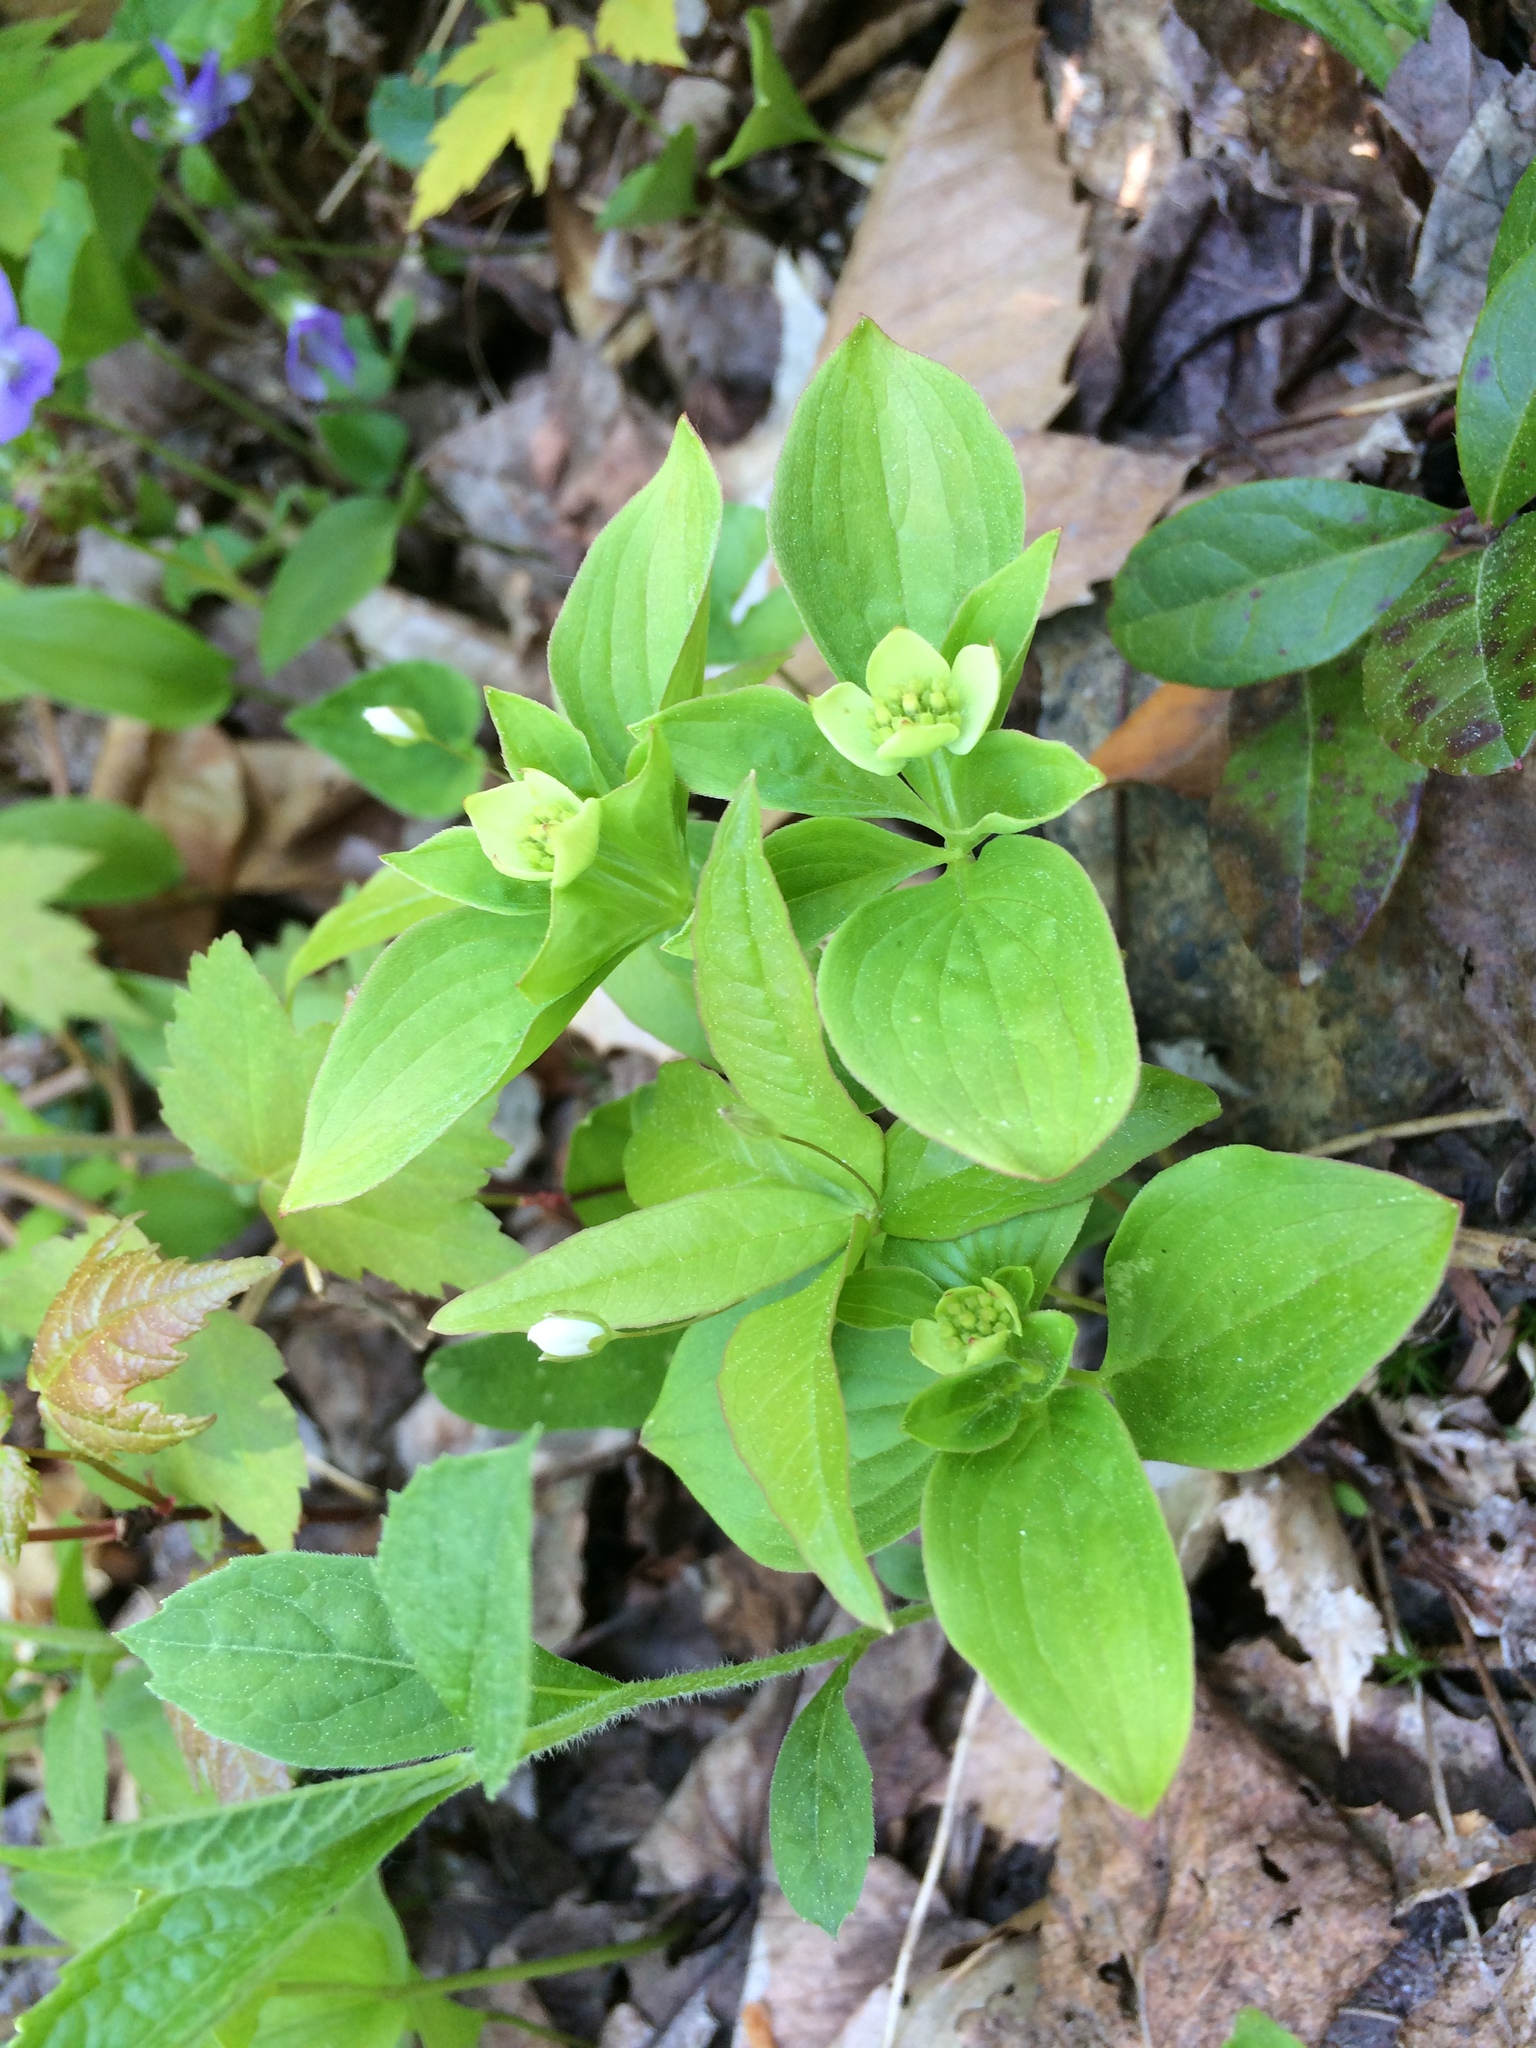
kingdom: Plantae
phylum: Tracheophyta
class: Magnoliopsida
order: Cornales
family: Cornaceae
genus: Cornus
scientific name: Cornus canadensis
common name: Creeping dogwood
